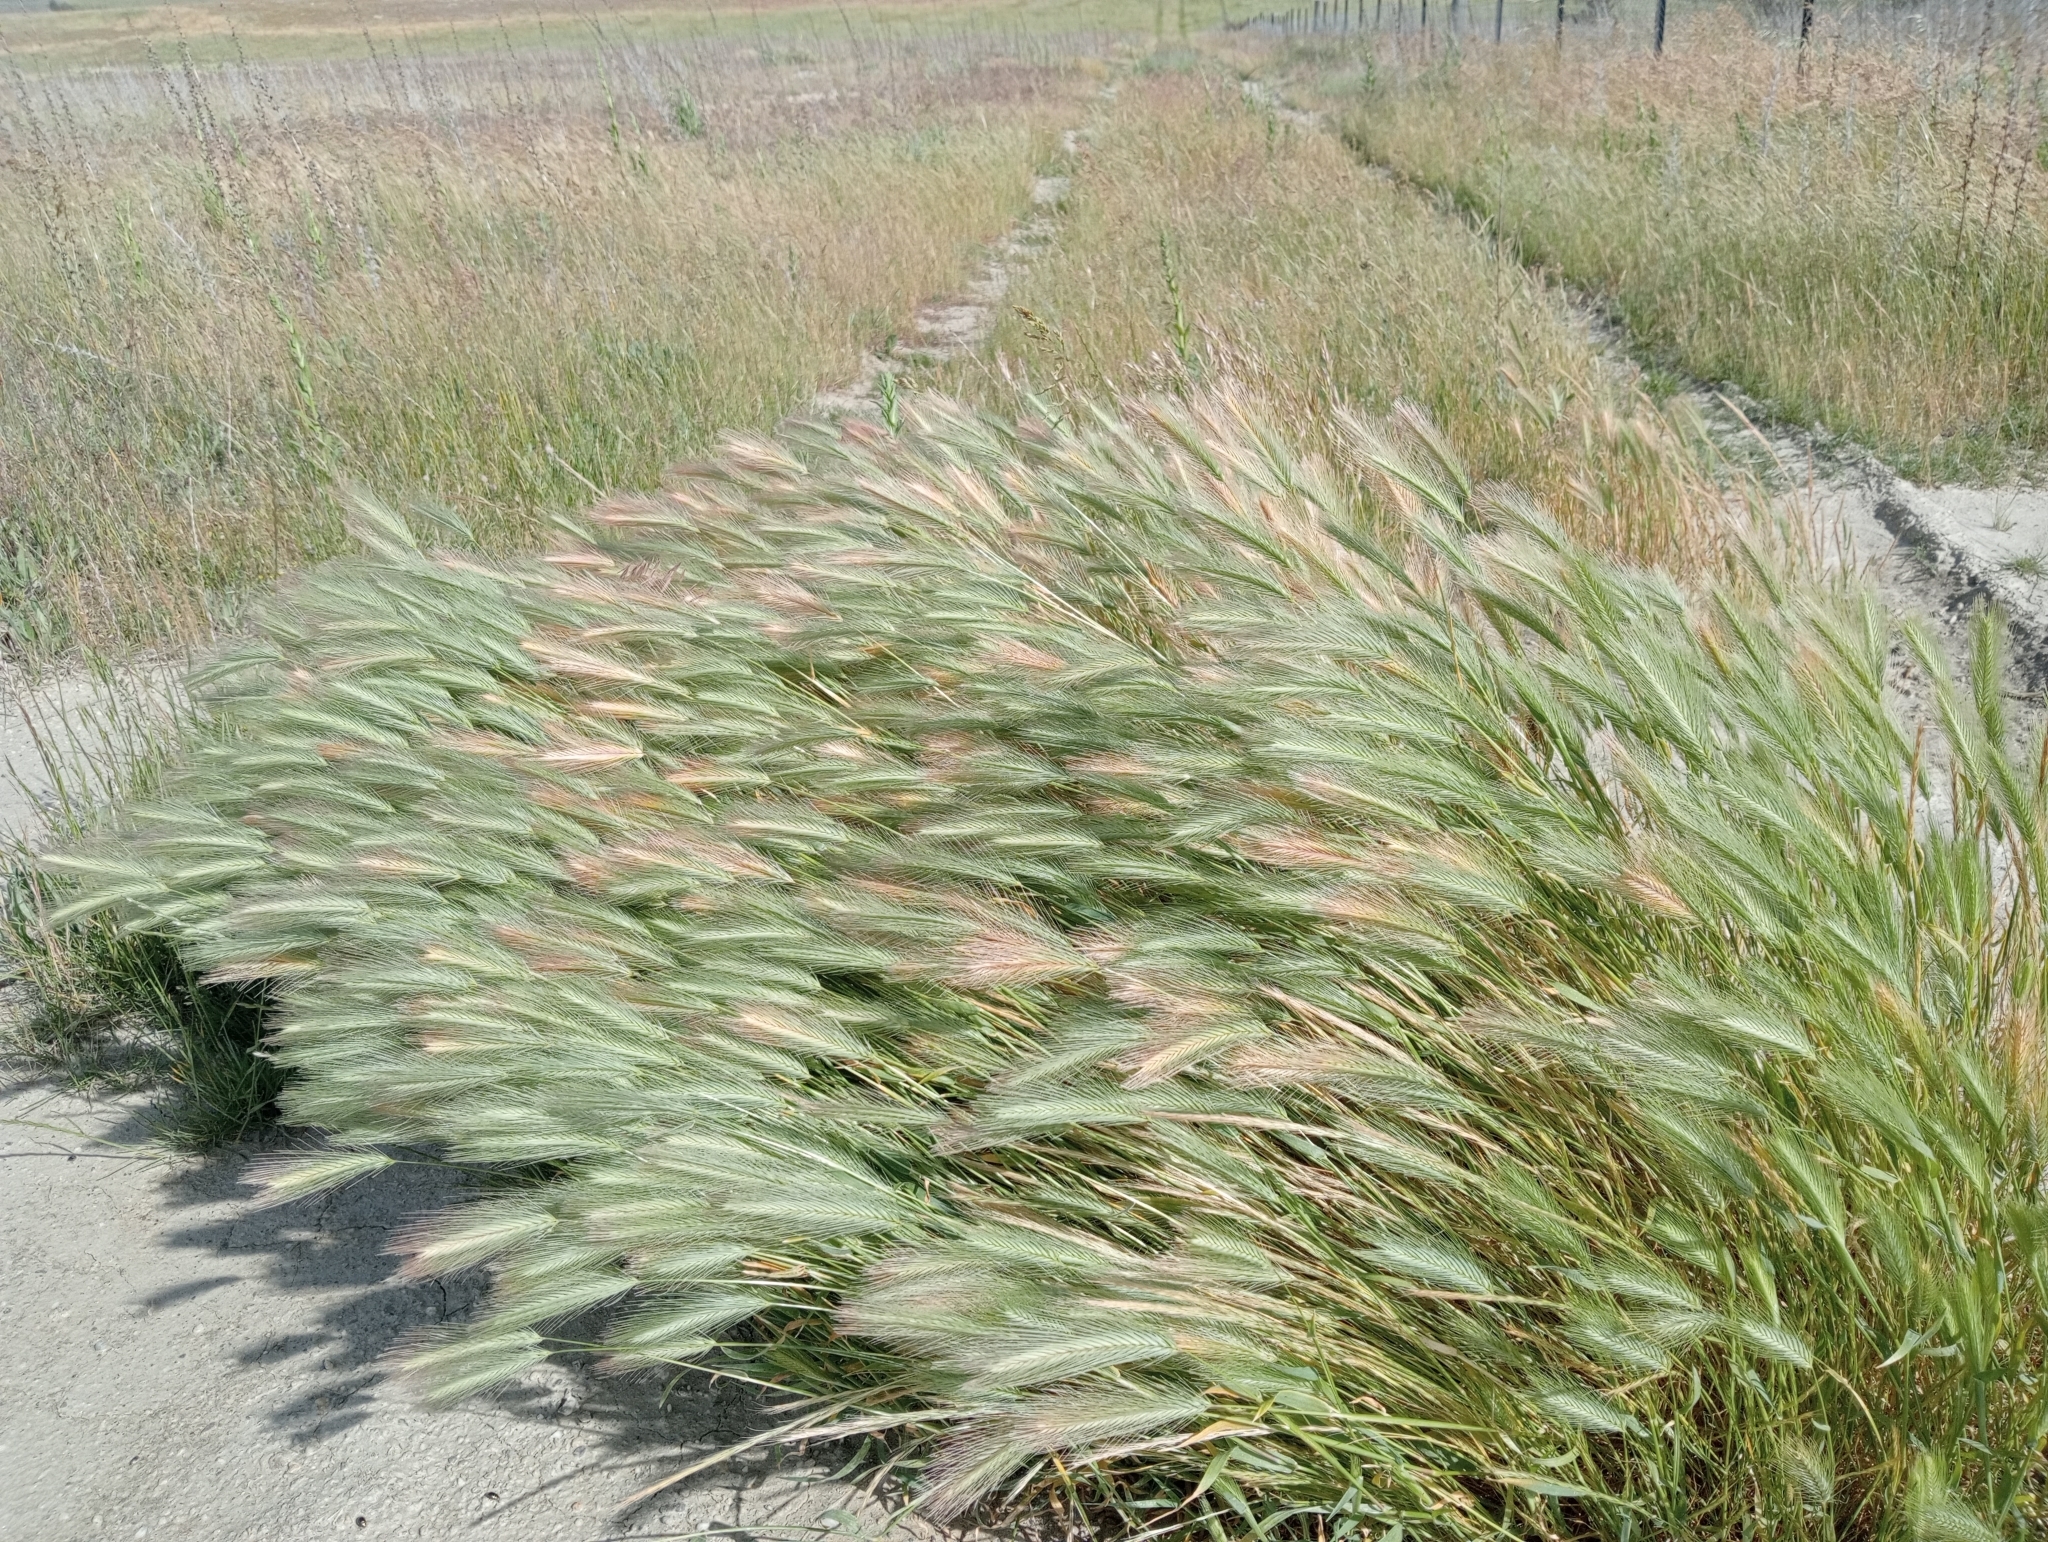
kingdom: Plantae
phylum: Tracheophyta
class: Liliopsida
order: Poales
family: Poaceae
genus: Hordeum
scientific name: Hordeum murinum
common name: Wall barley
